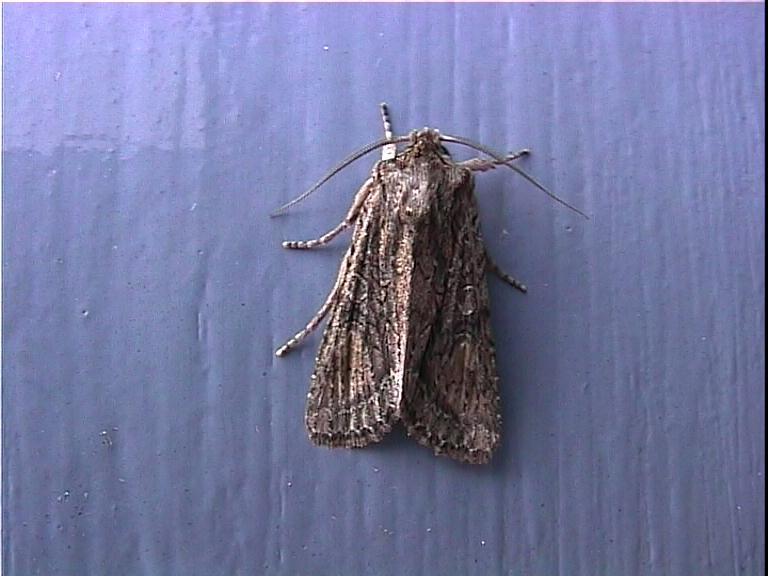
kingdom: Animalia
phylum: Arthropoda
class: Insecta
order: Lepidoptera
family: Noctuidae
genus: Ichneutica
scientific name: Ichneutica mutans
